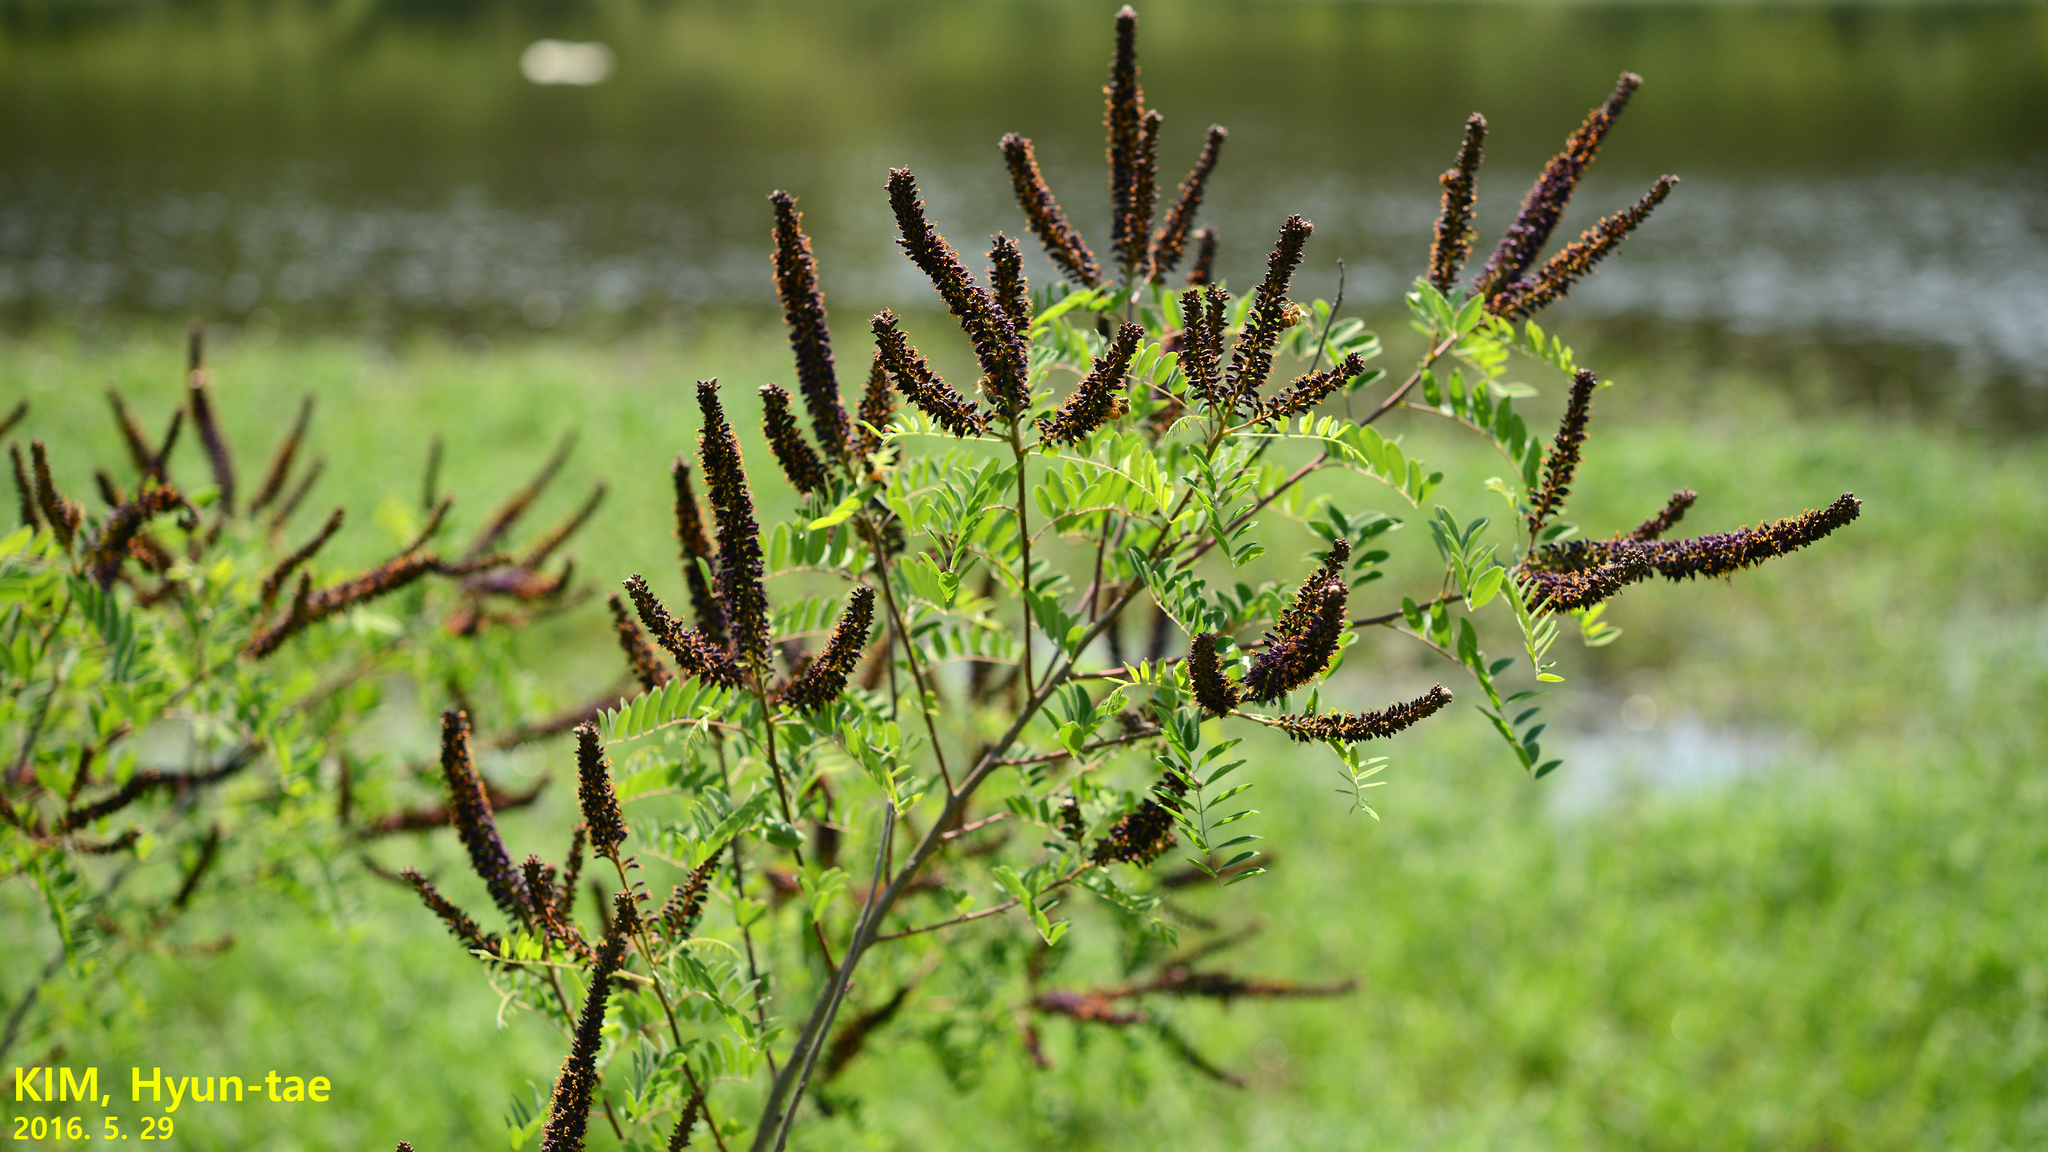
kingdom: Plantae
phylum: Tracheophyta
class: Magnoliopsida
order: Fabales
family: Fabaceae
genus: Amorpha
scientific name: Amorpha fruticosa
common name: False indigo
